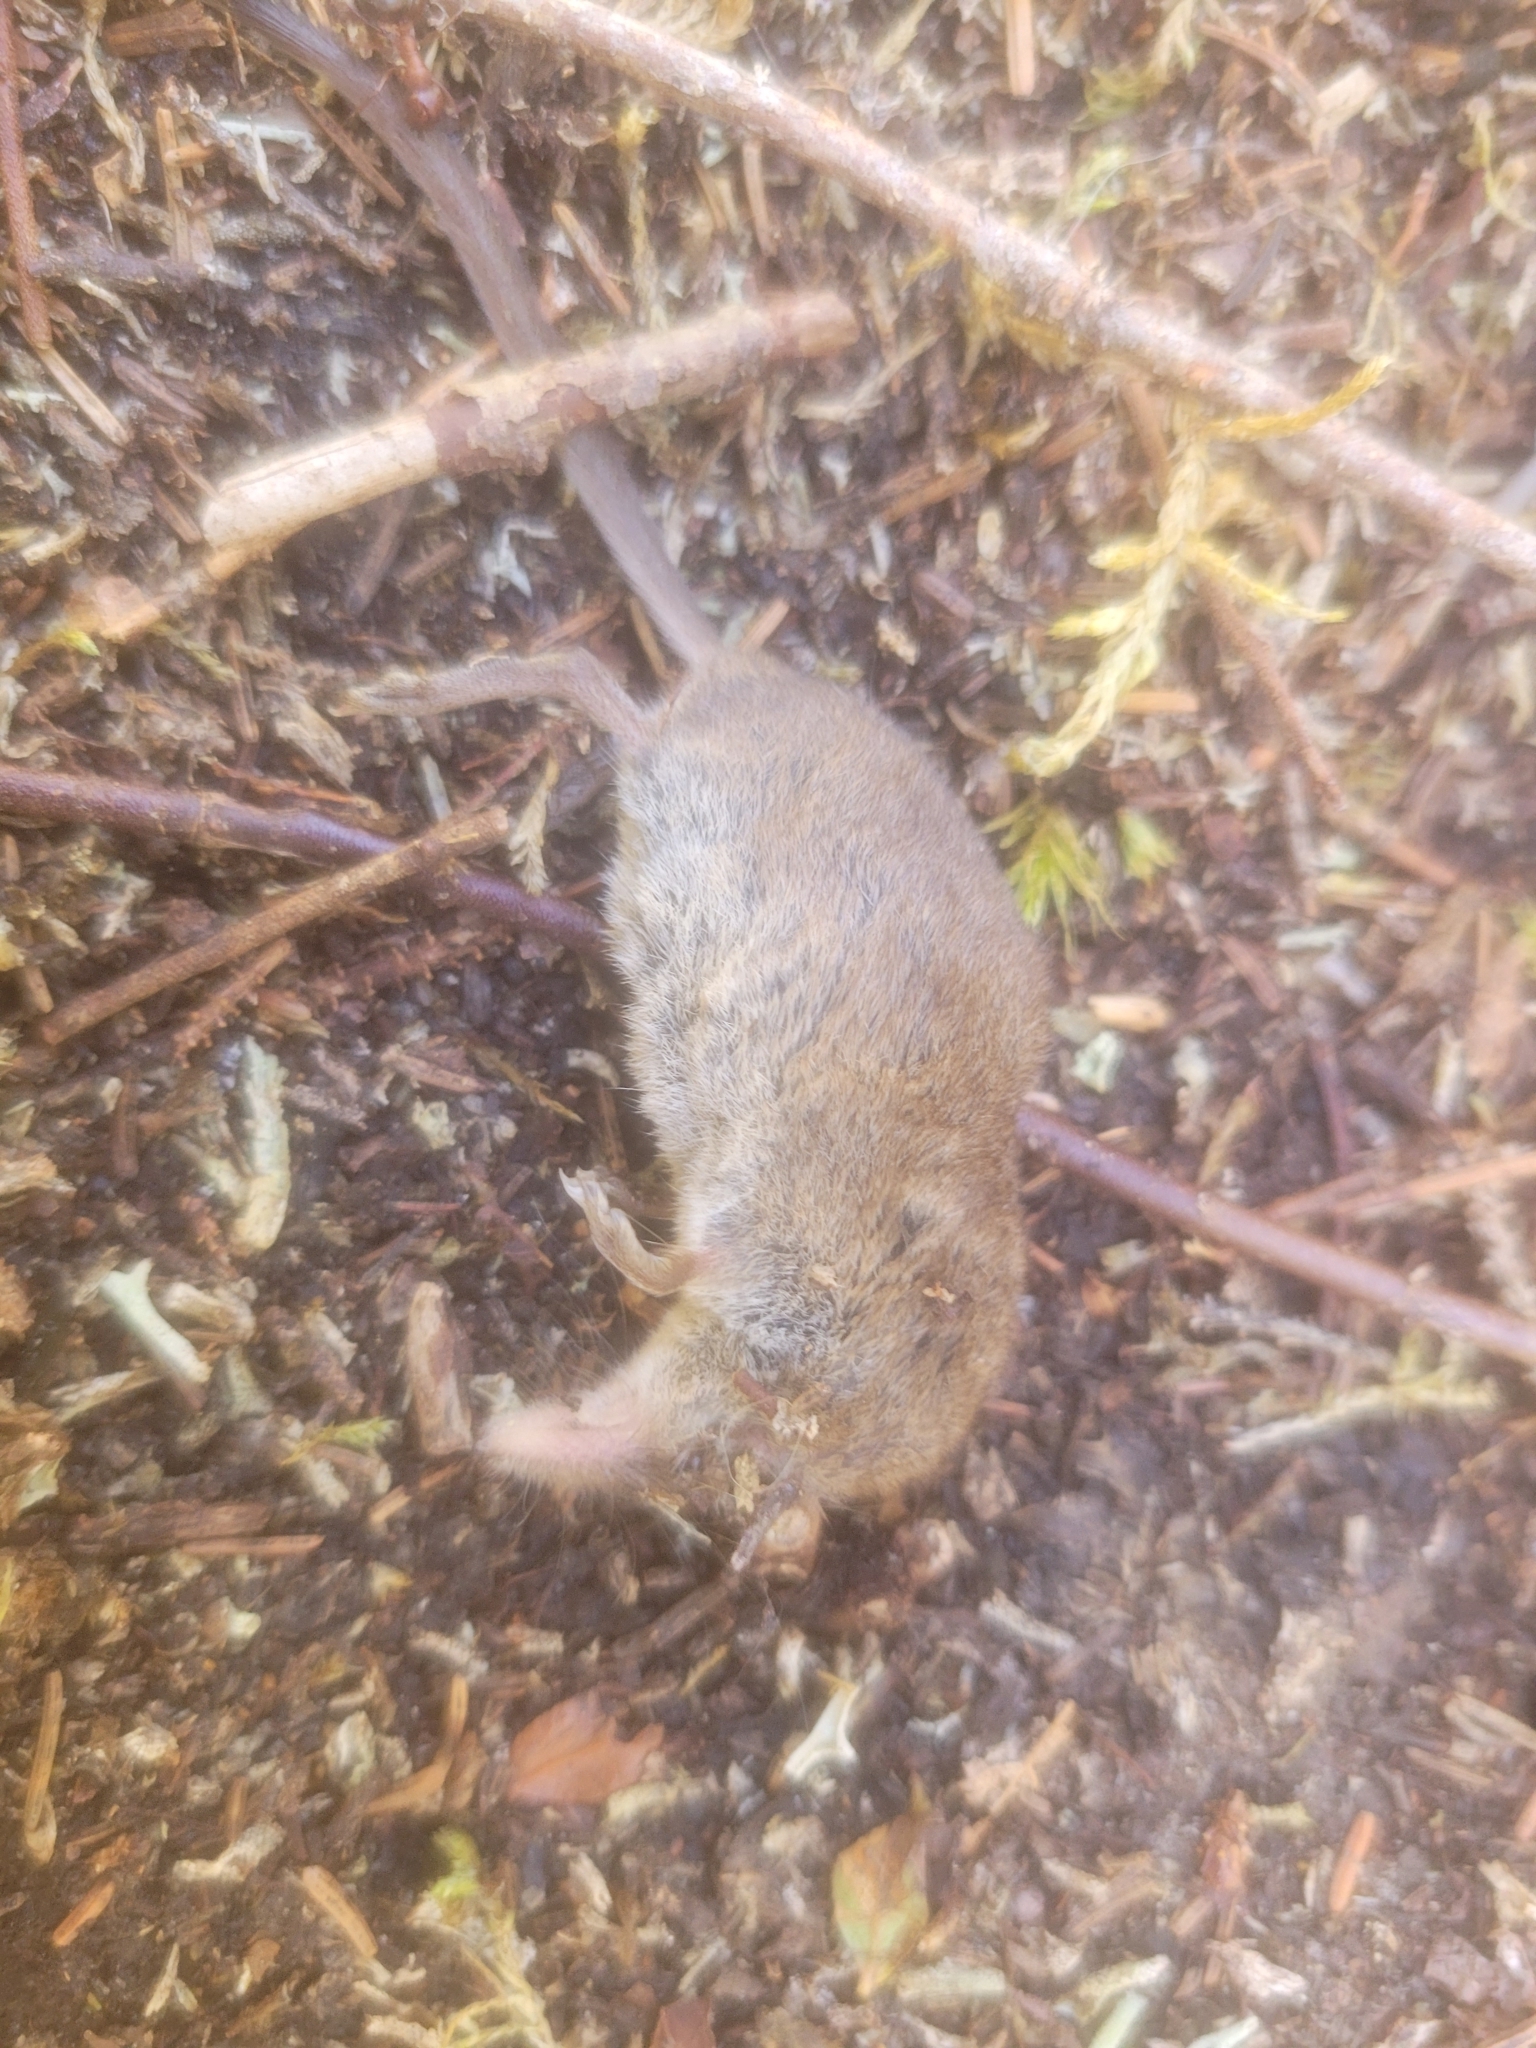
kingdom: Animalia
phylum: Chordata
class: Mammalia
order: Soricomorpha
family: Soricidae
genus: Sorex
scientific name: Sorex cinereus
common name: Cinereus shrew
